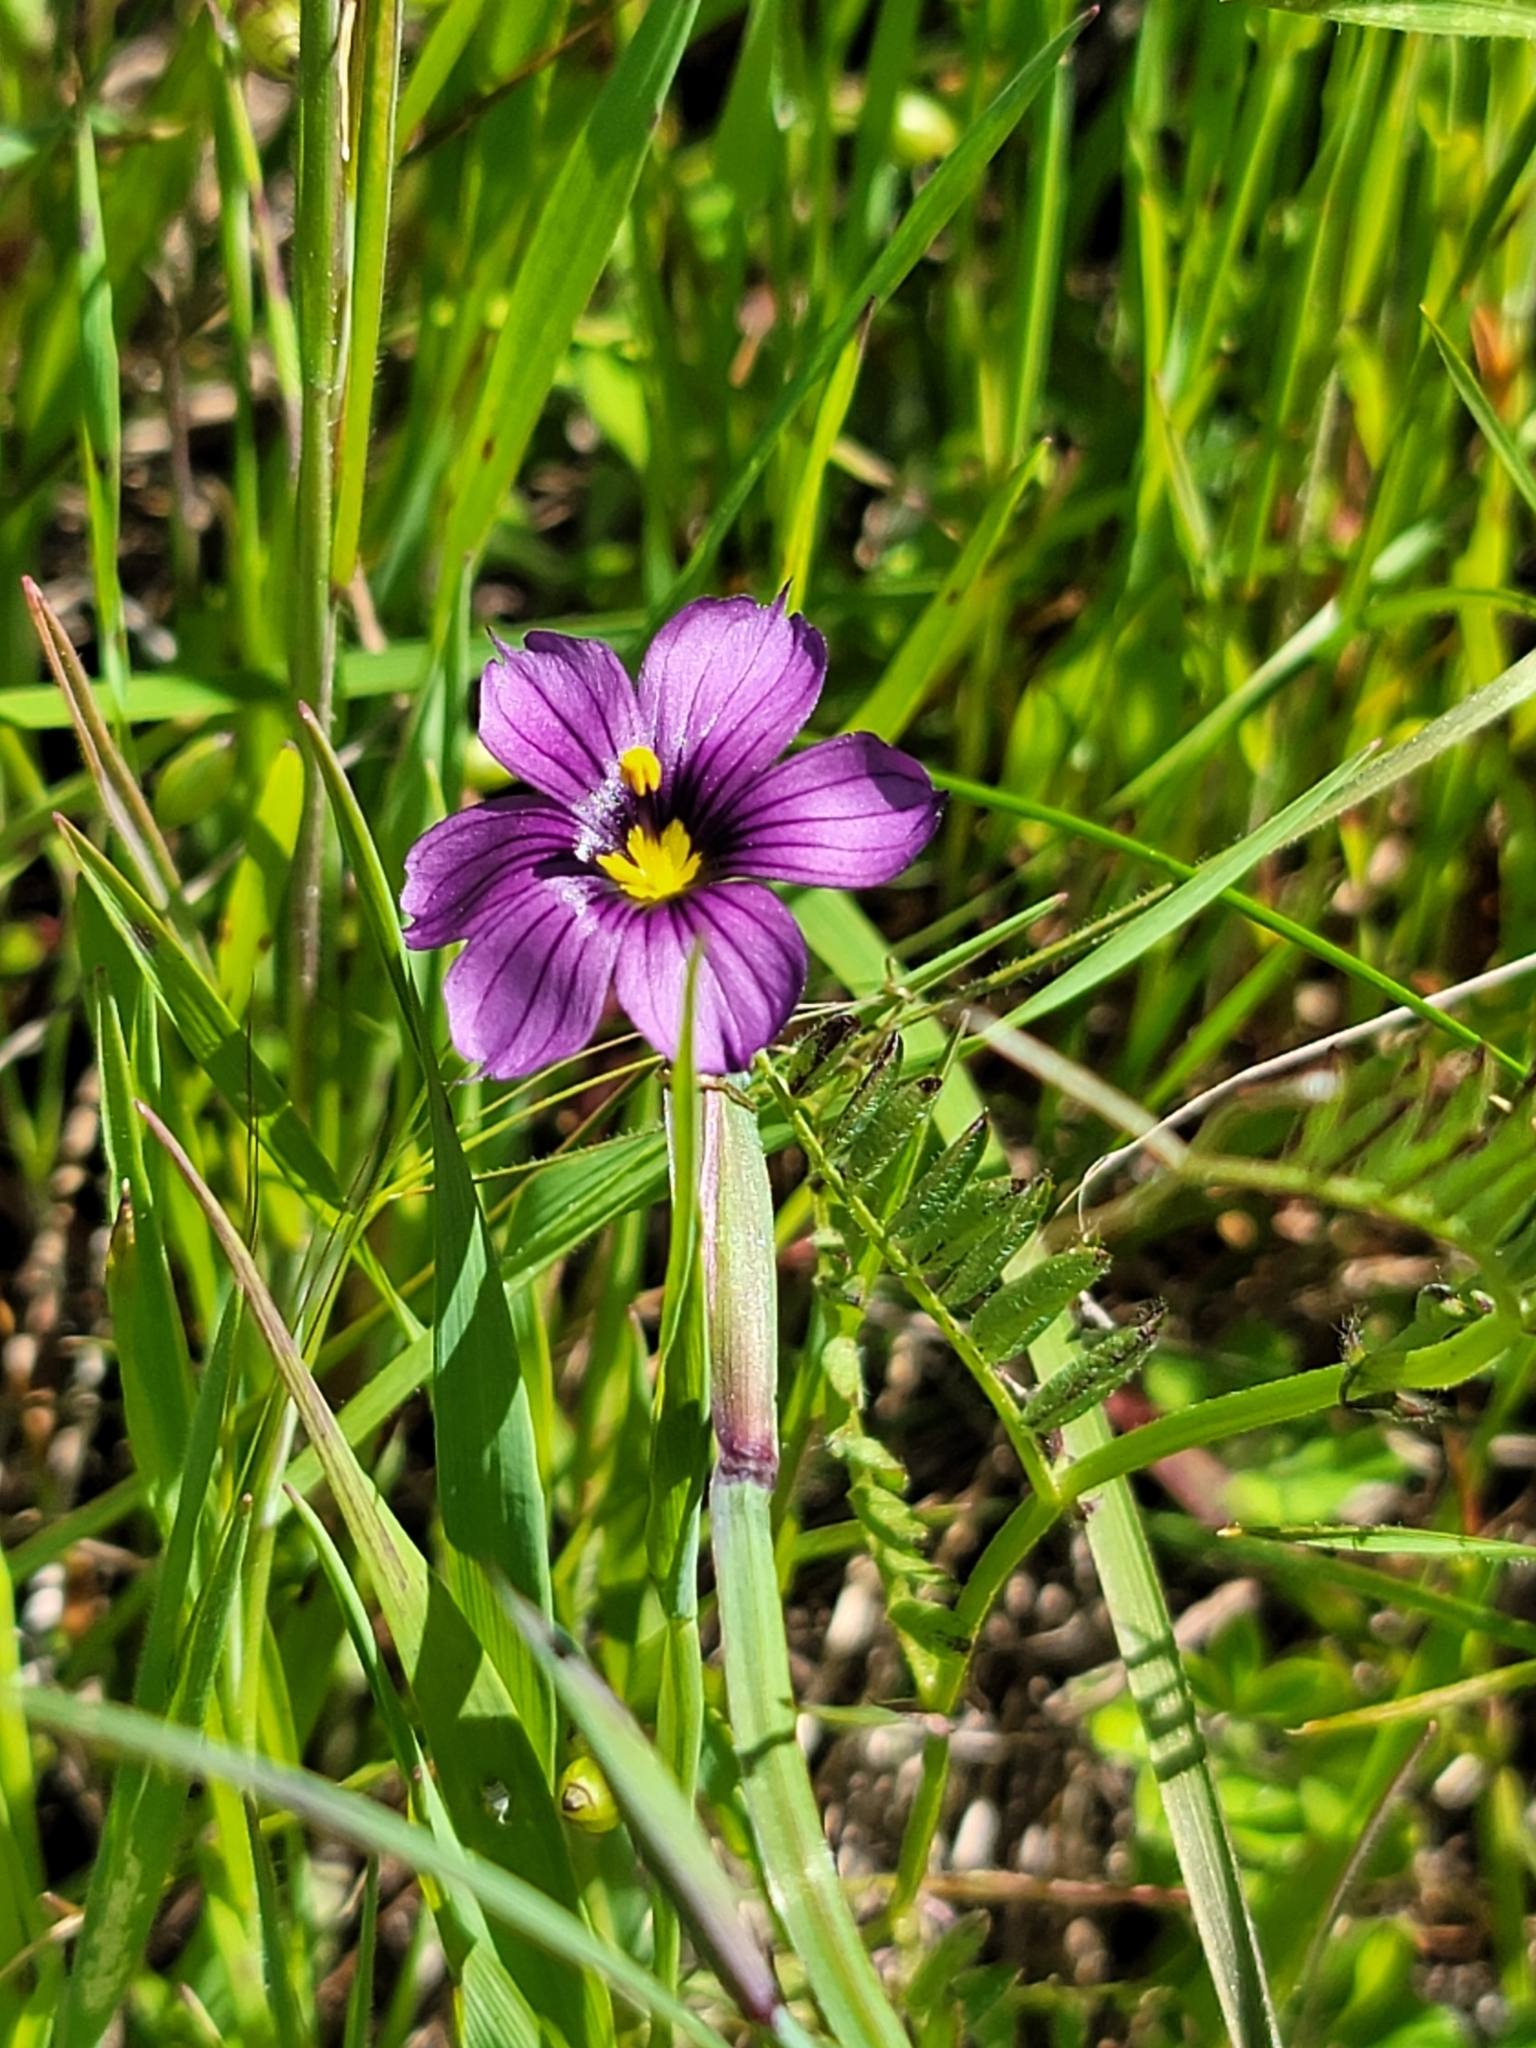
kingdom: Plantae
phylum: Tracheophyta
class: Liliopsida
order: Asparagales
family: Iridaceae
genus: Sisyrinchium
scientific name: Sisyrinchium bellum
